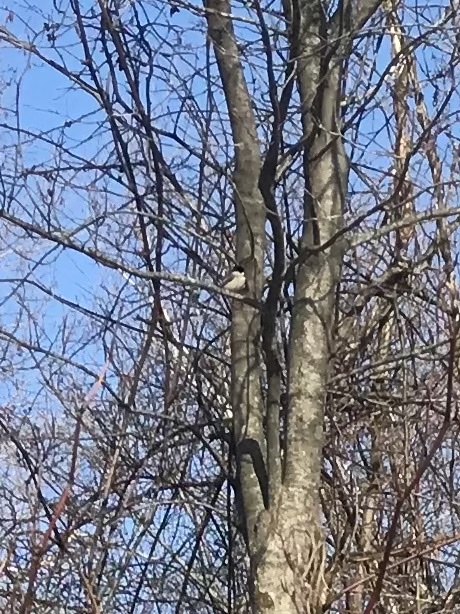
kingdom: Animalia
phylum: Chordata
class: Aves
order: Passeriformes
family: Paridae
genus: Poecile
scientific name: Poecile atricapillus
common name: Black-capped chickadee
